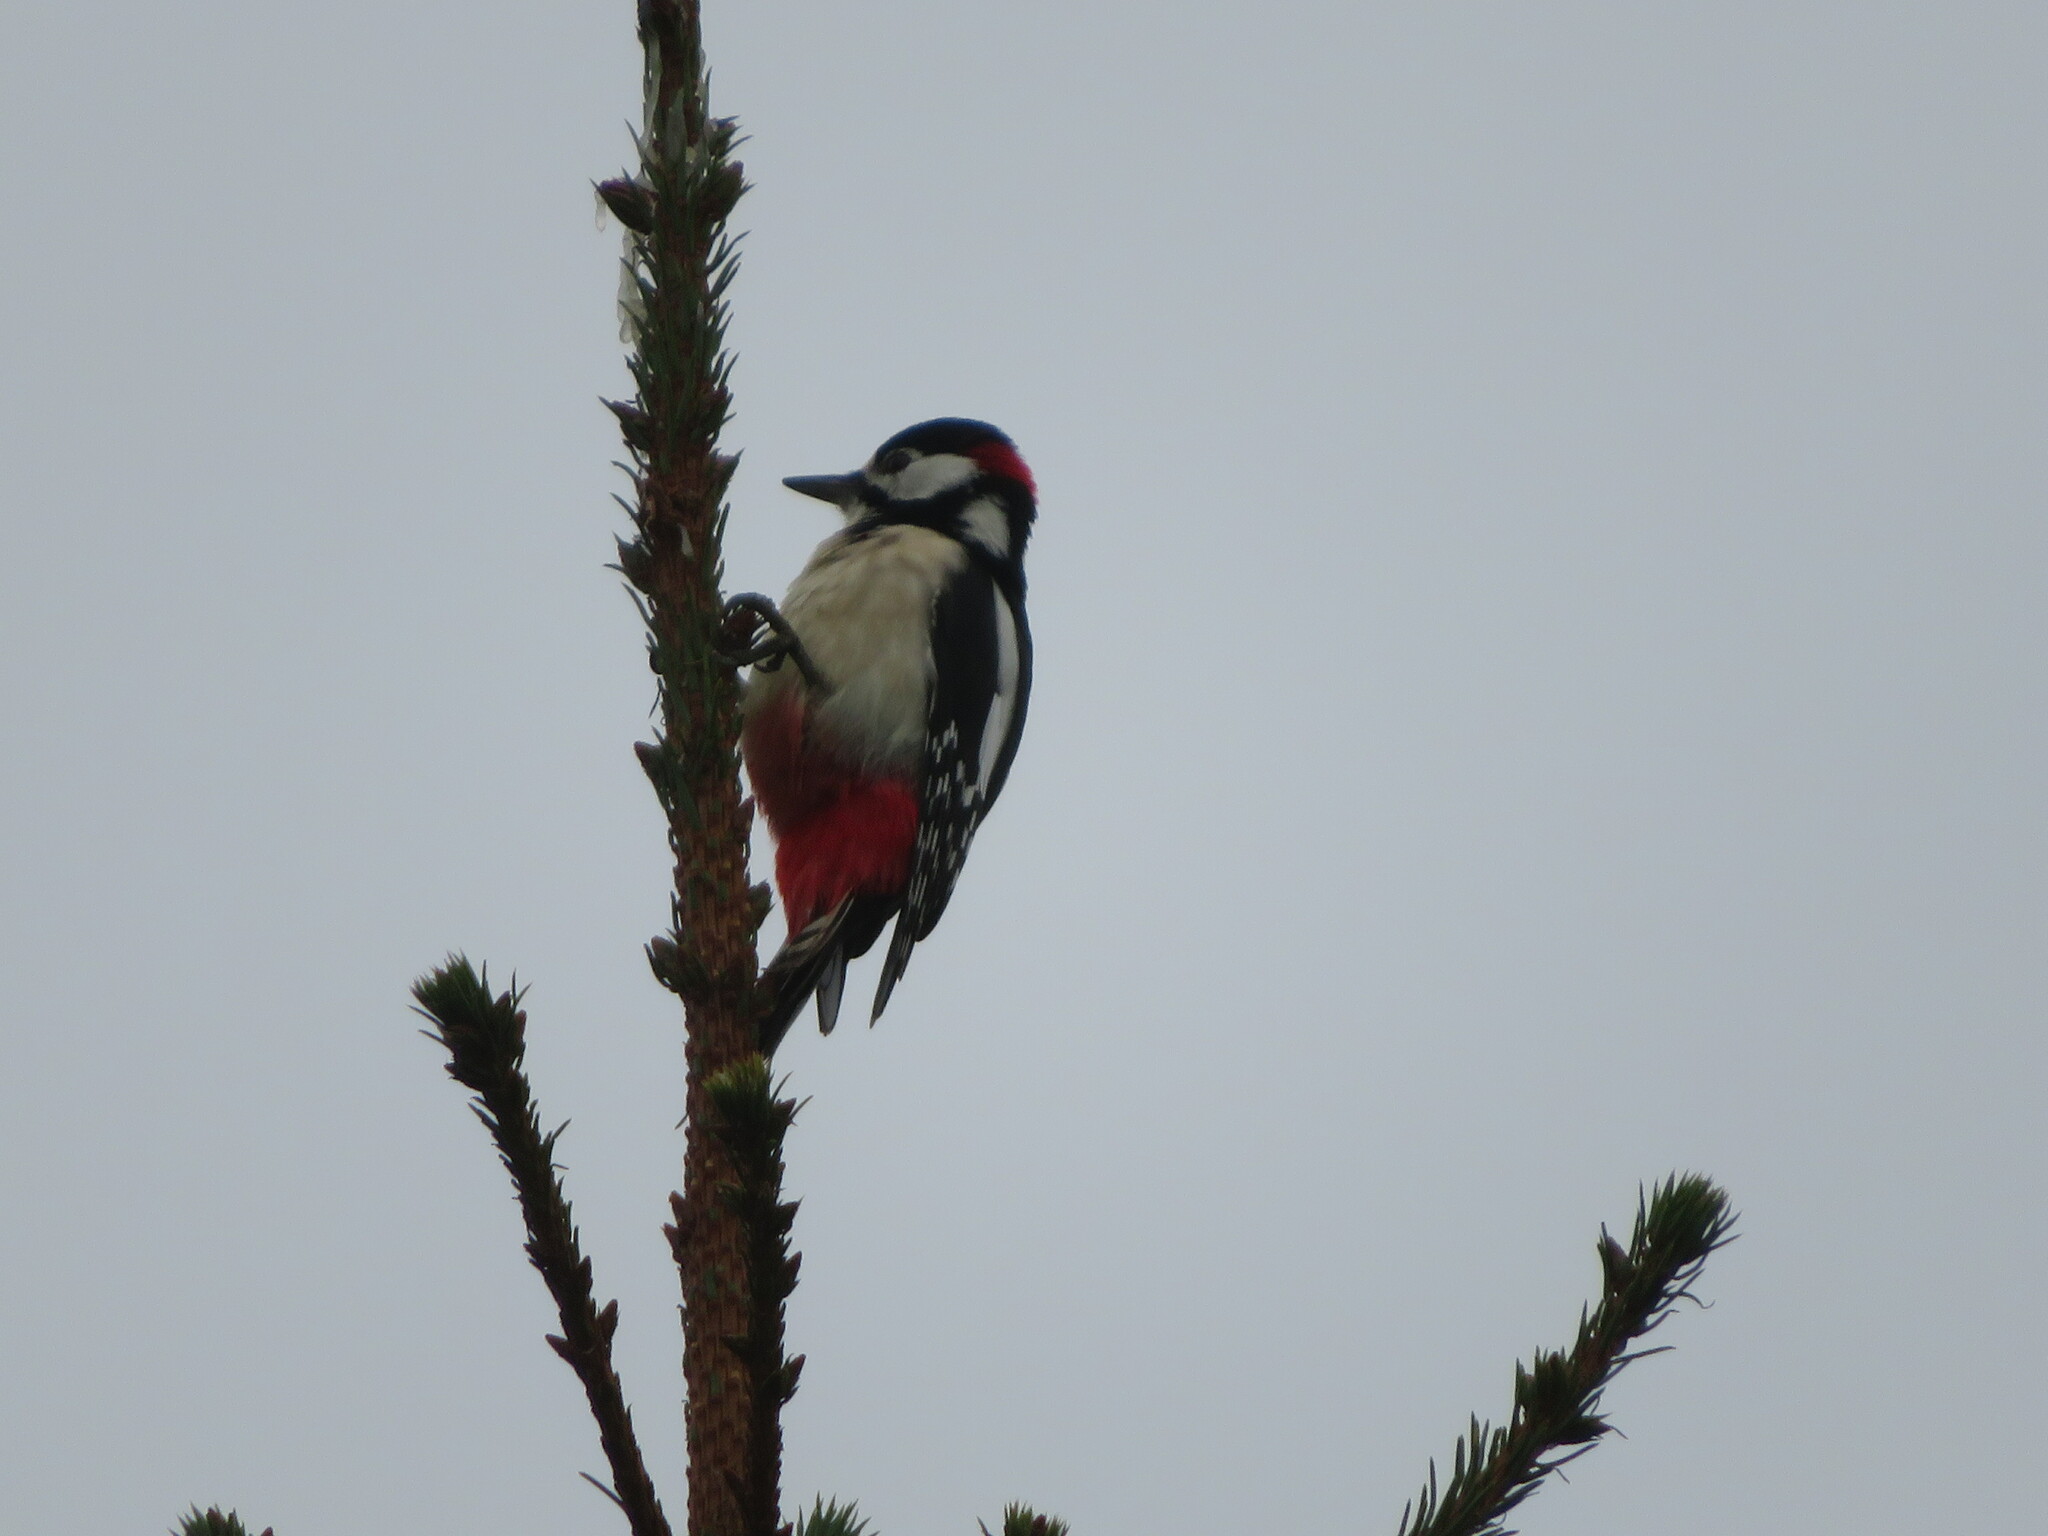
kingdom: Animalia
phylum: Chordata
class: Aves
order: Piciformes
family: Picidae
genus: Dendrocopos
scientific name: Dendrocopos major
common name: Great spotted woodpecker
